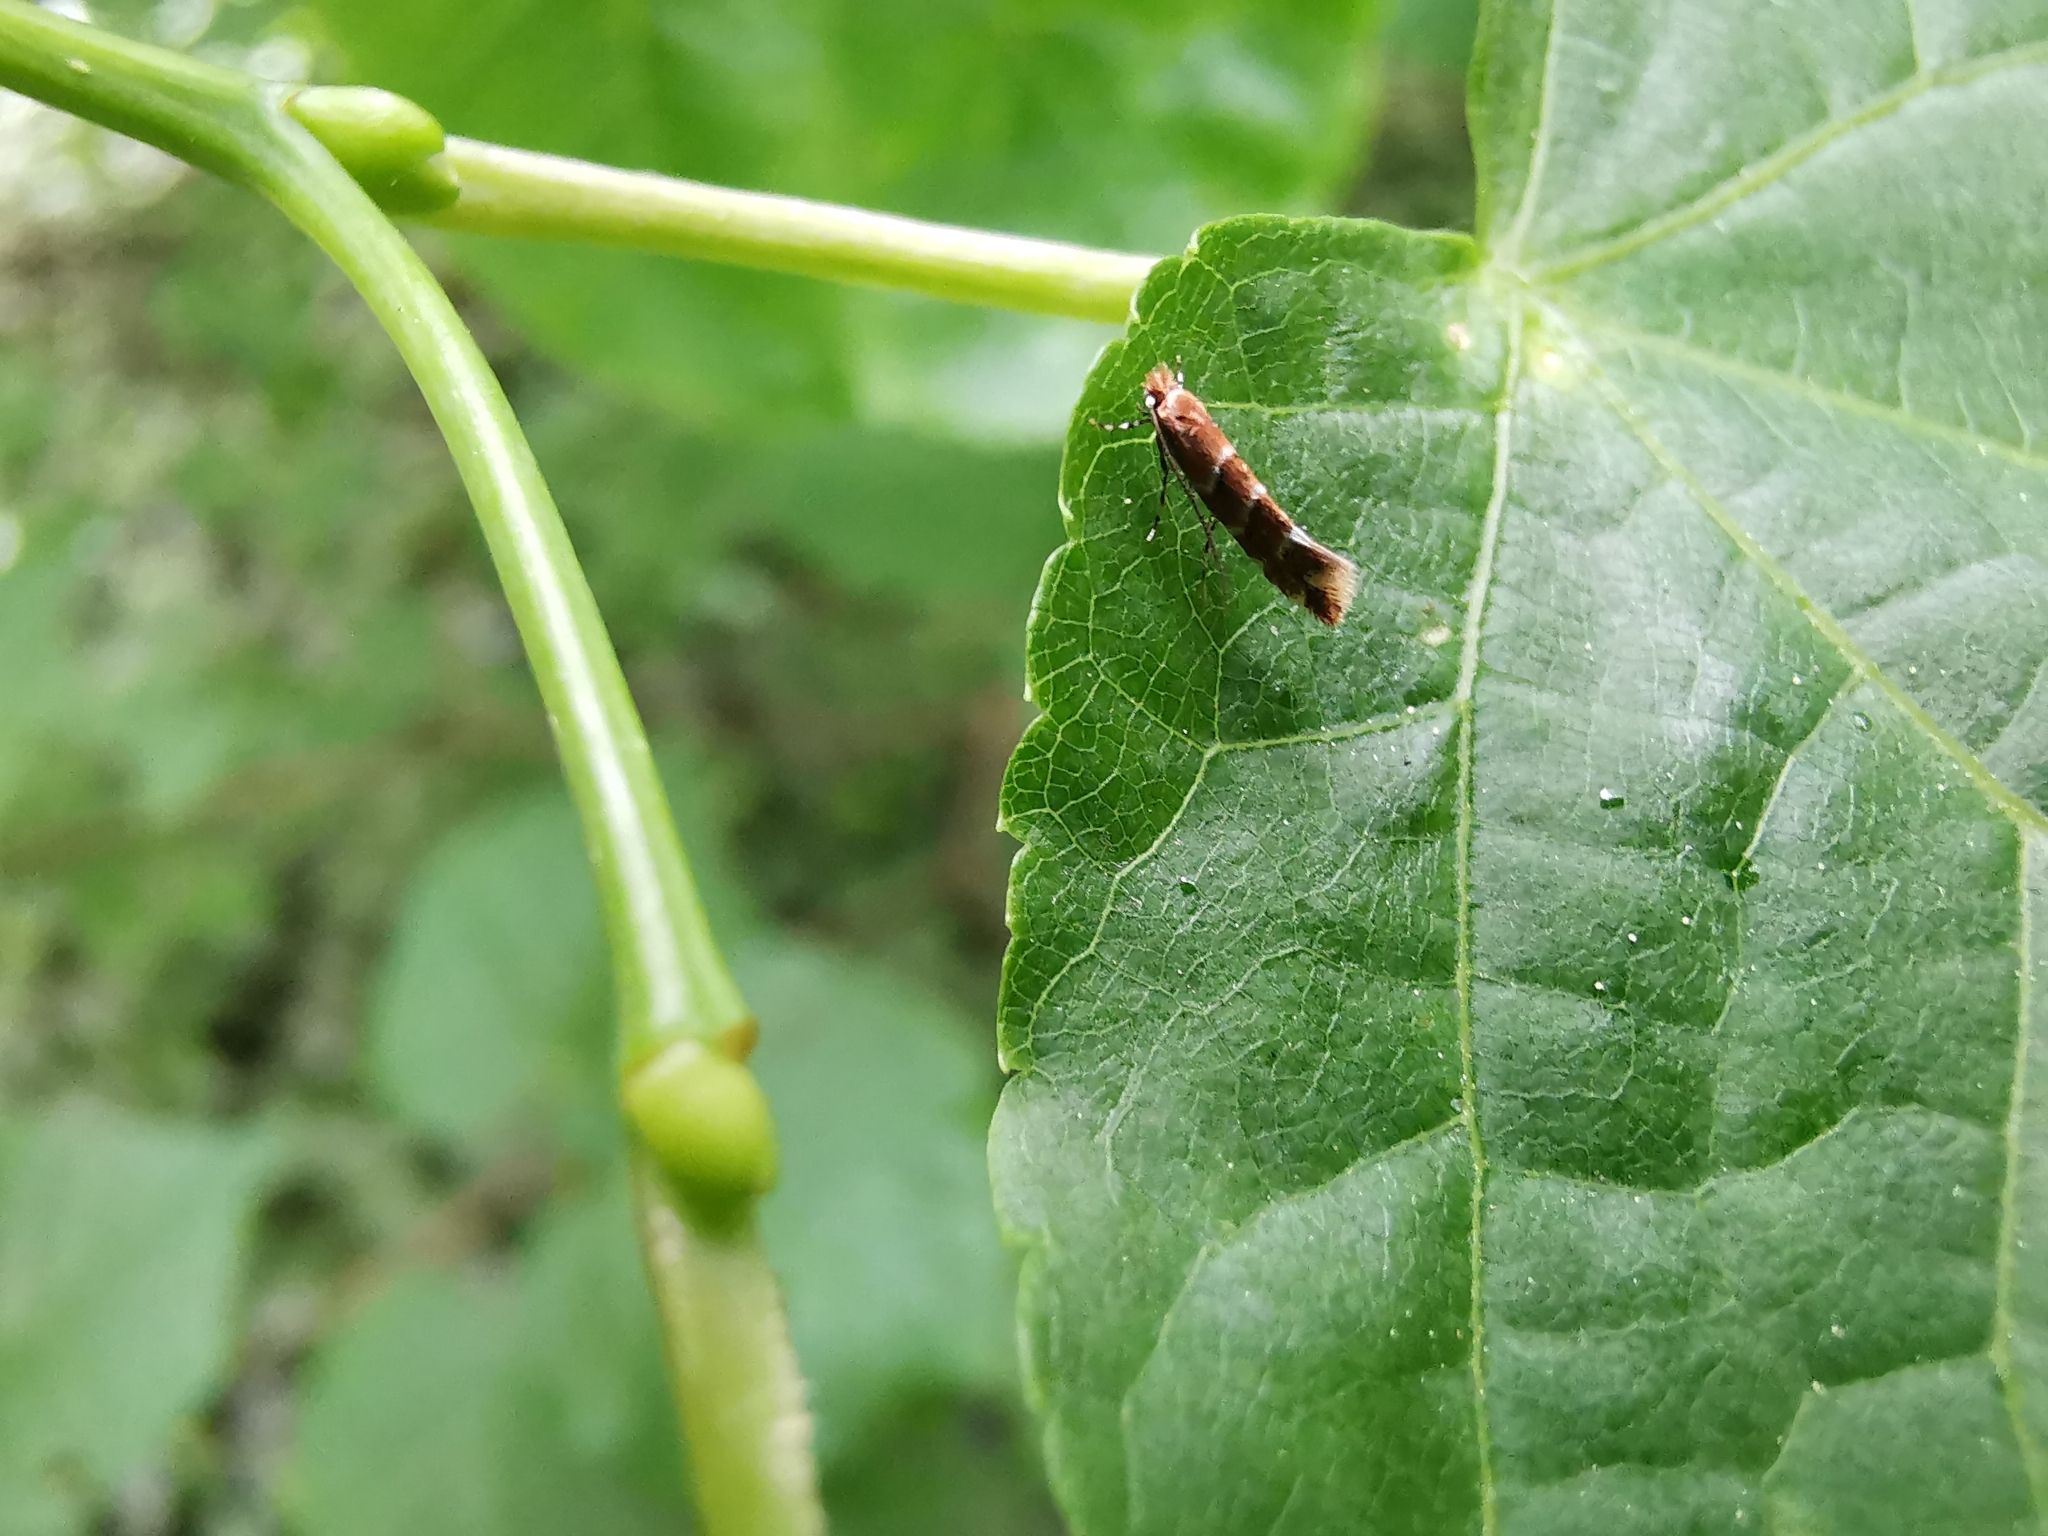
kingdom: Animalia
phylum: Arthropoda
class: Insecta
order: Lepidoptera
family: Gracillariidae
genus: Cameraria
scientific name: Cameraria ohridella
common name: Horse-chestnut leaf-miner
